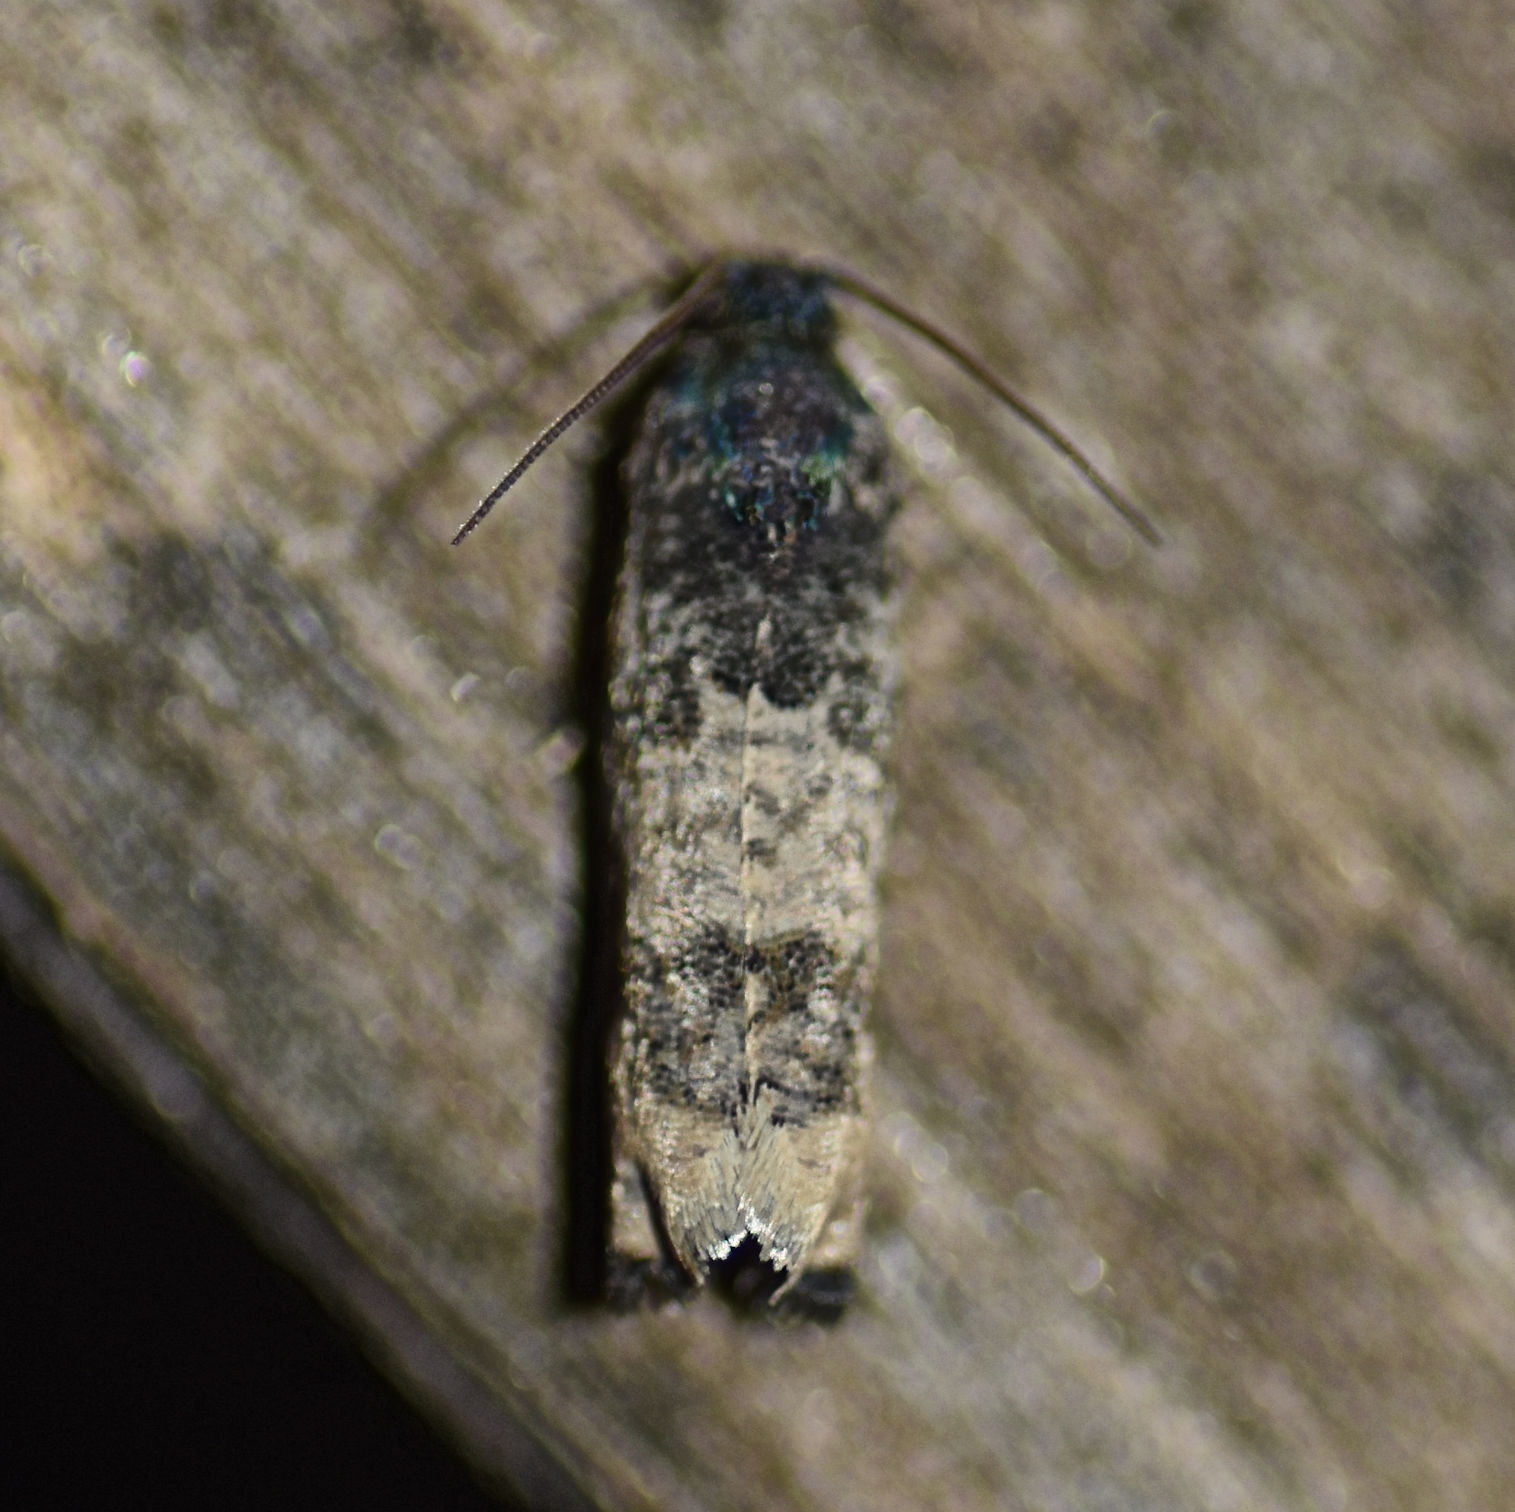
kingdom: Animalia
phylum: Arthropoda
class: Insecta
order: Lepidoptera
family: Tortricidae
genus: Epiblema
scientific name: Epiblema obfuscana
